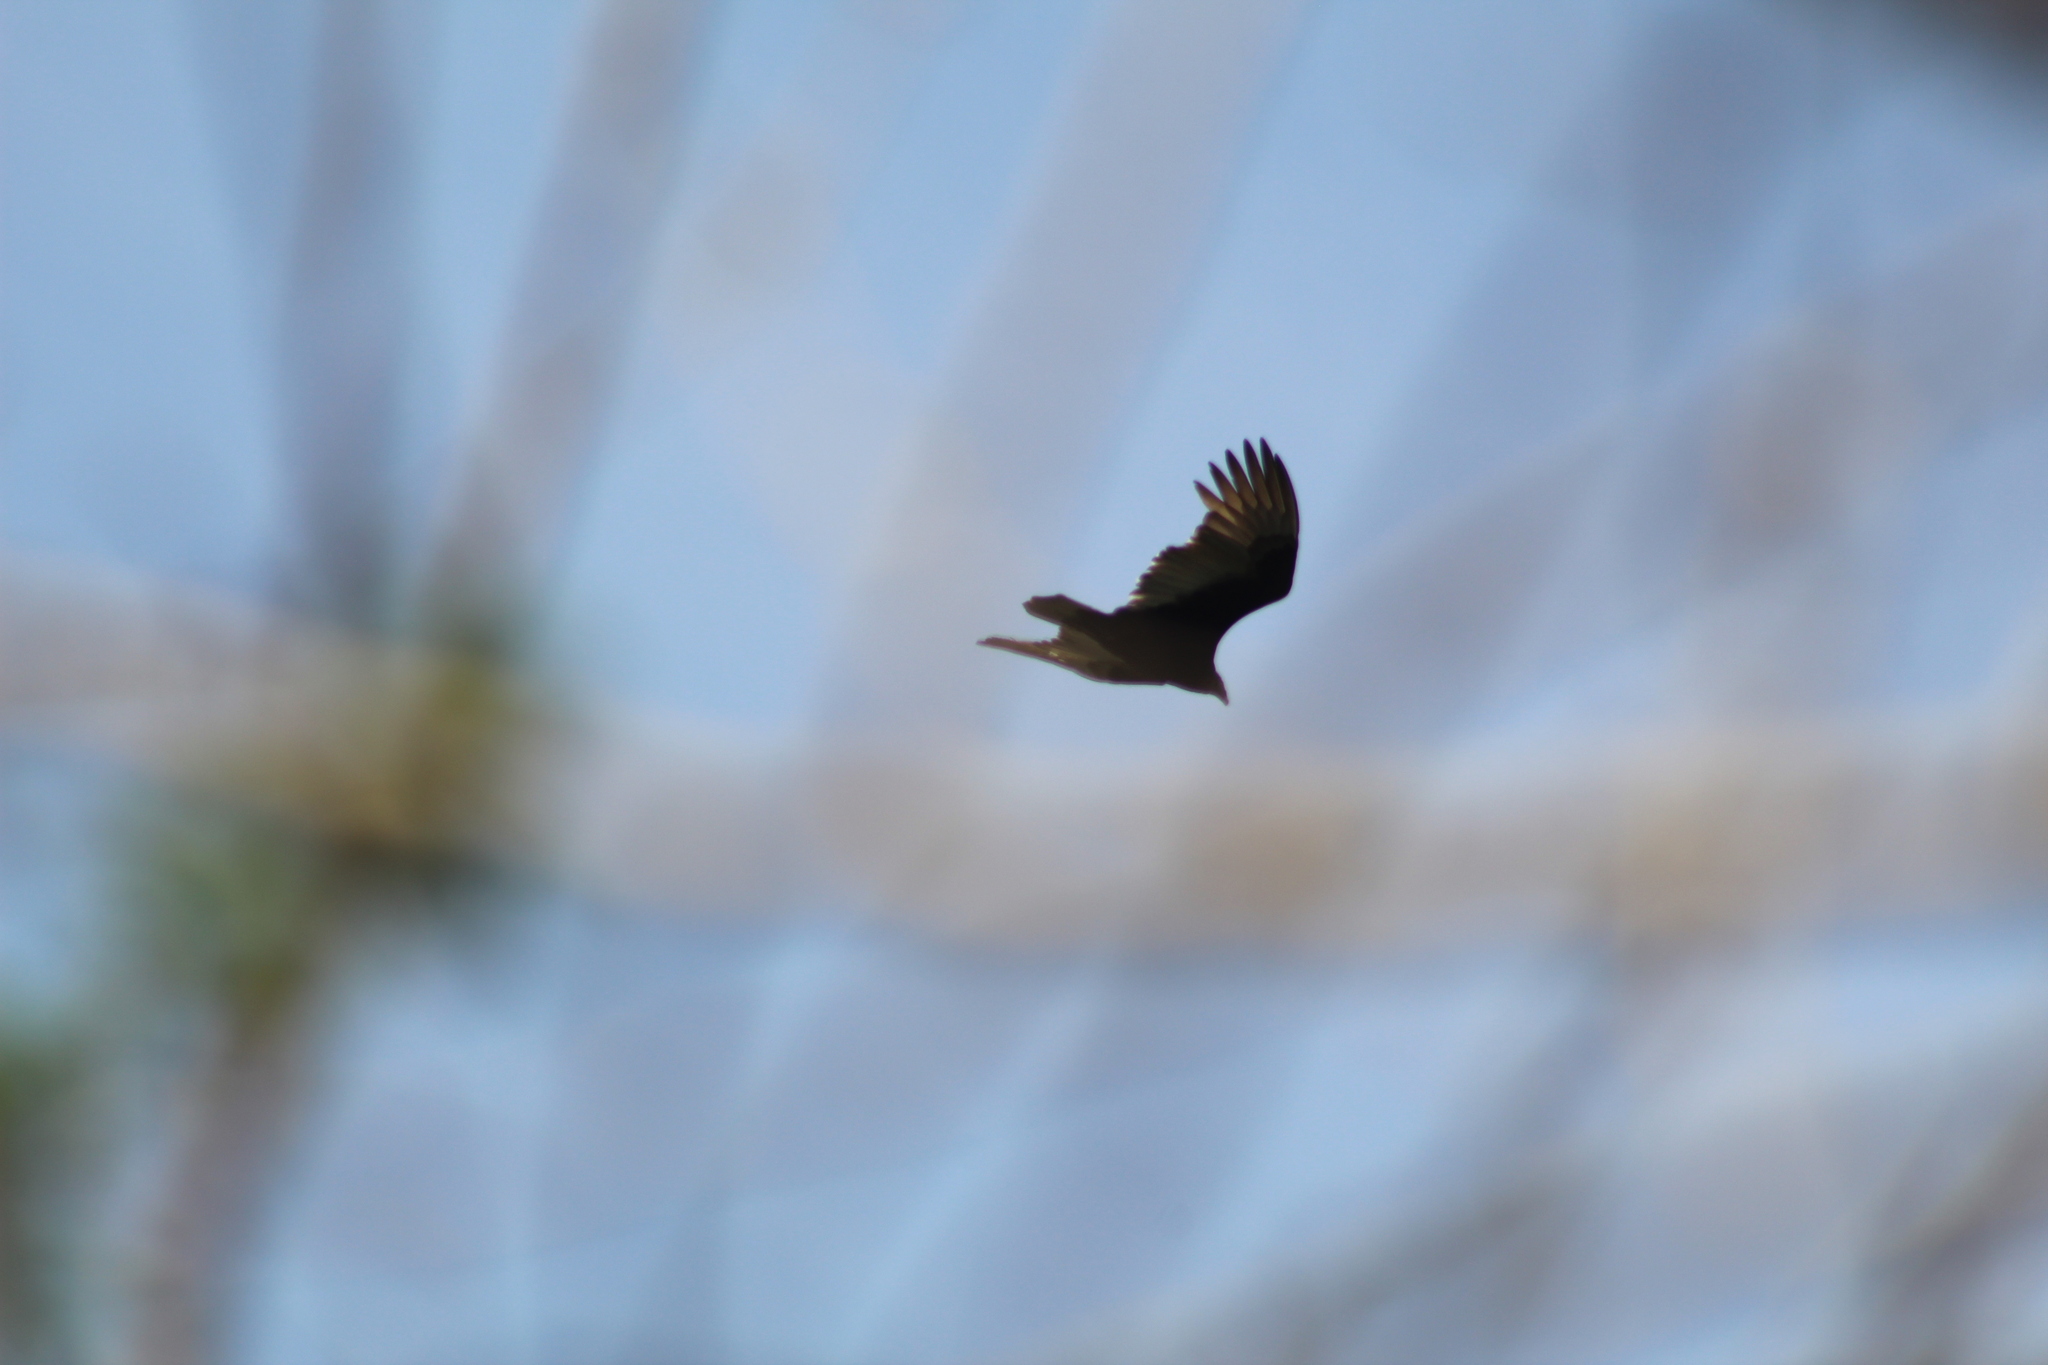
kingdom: Animalia
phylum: Chordata
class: Aves
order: Accipitriformes
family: Cathartidae
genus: Cathartes
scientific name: Cathartes aura
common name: Turkey vulture
